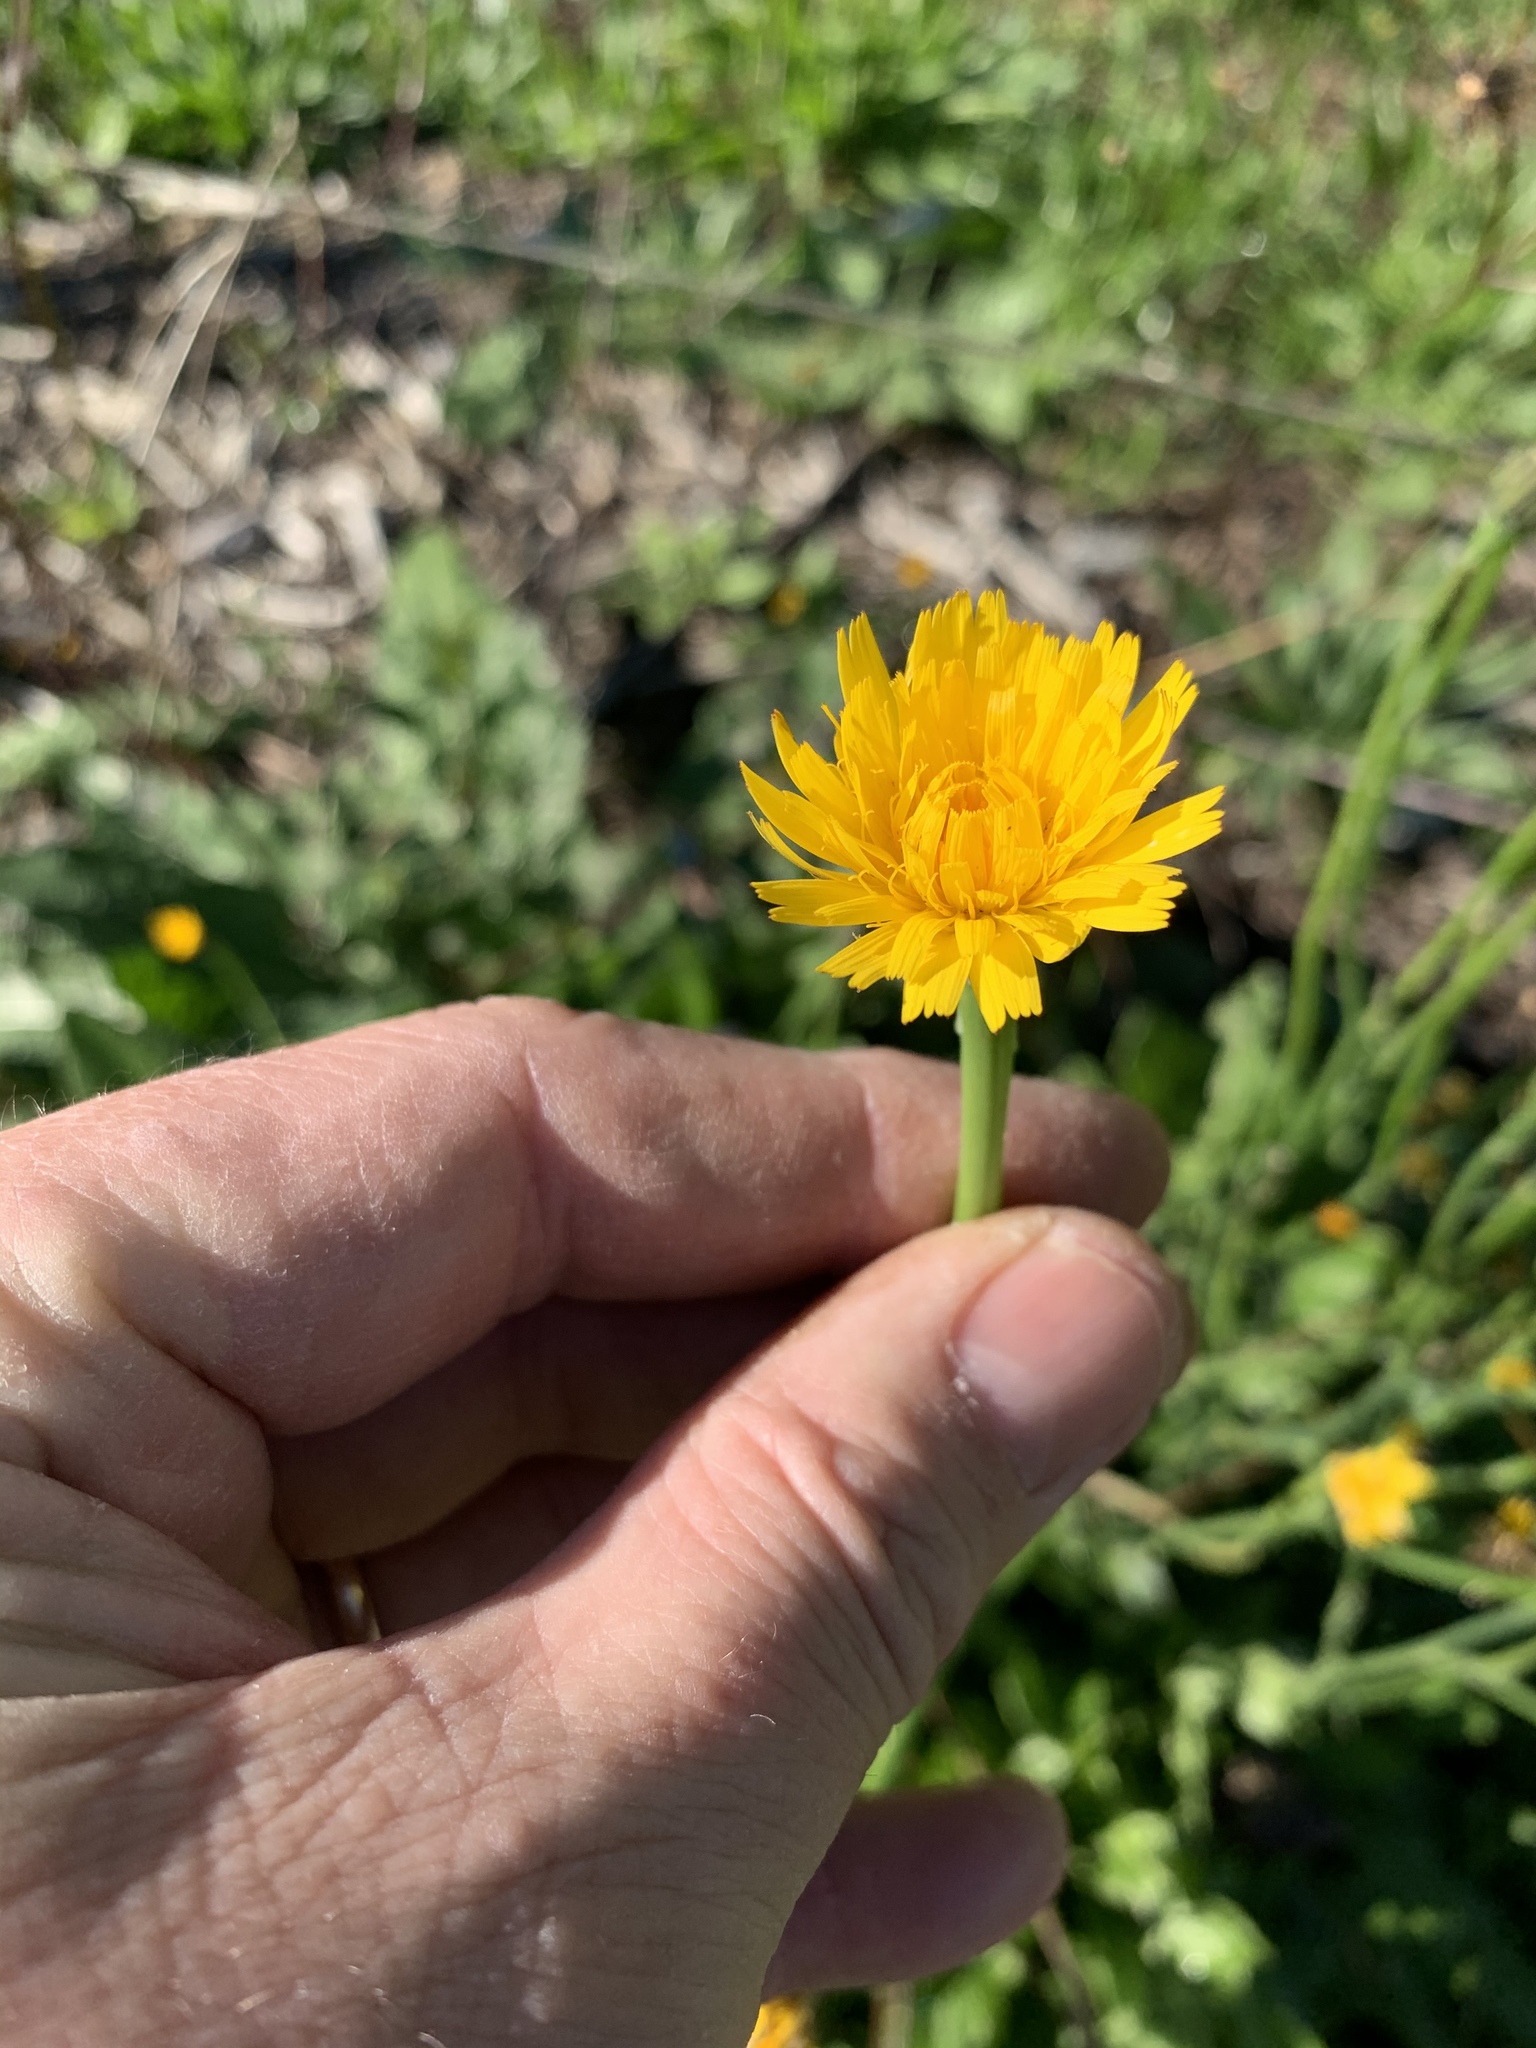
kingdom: Plantae
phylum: Tracheophyta
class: Magnoliopsida
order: Asterales
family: Asteraceae
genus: Hypochaeris
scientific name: Hypochaeris radicata
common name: Flatweed
